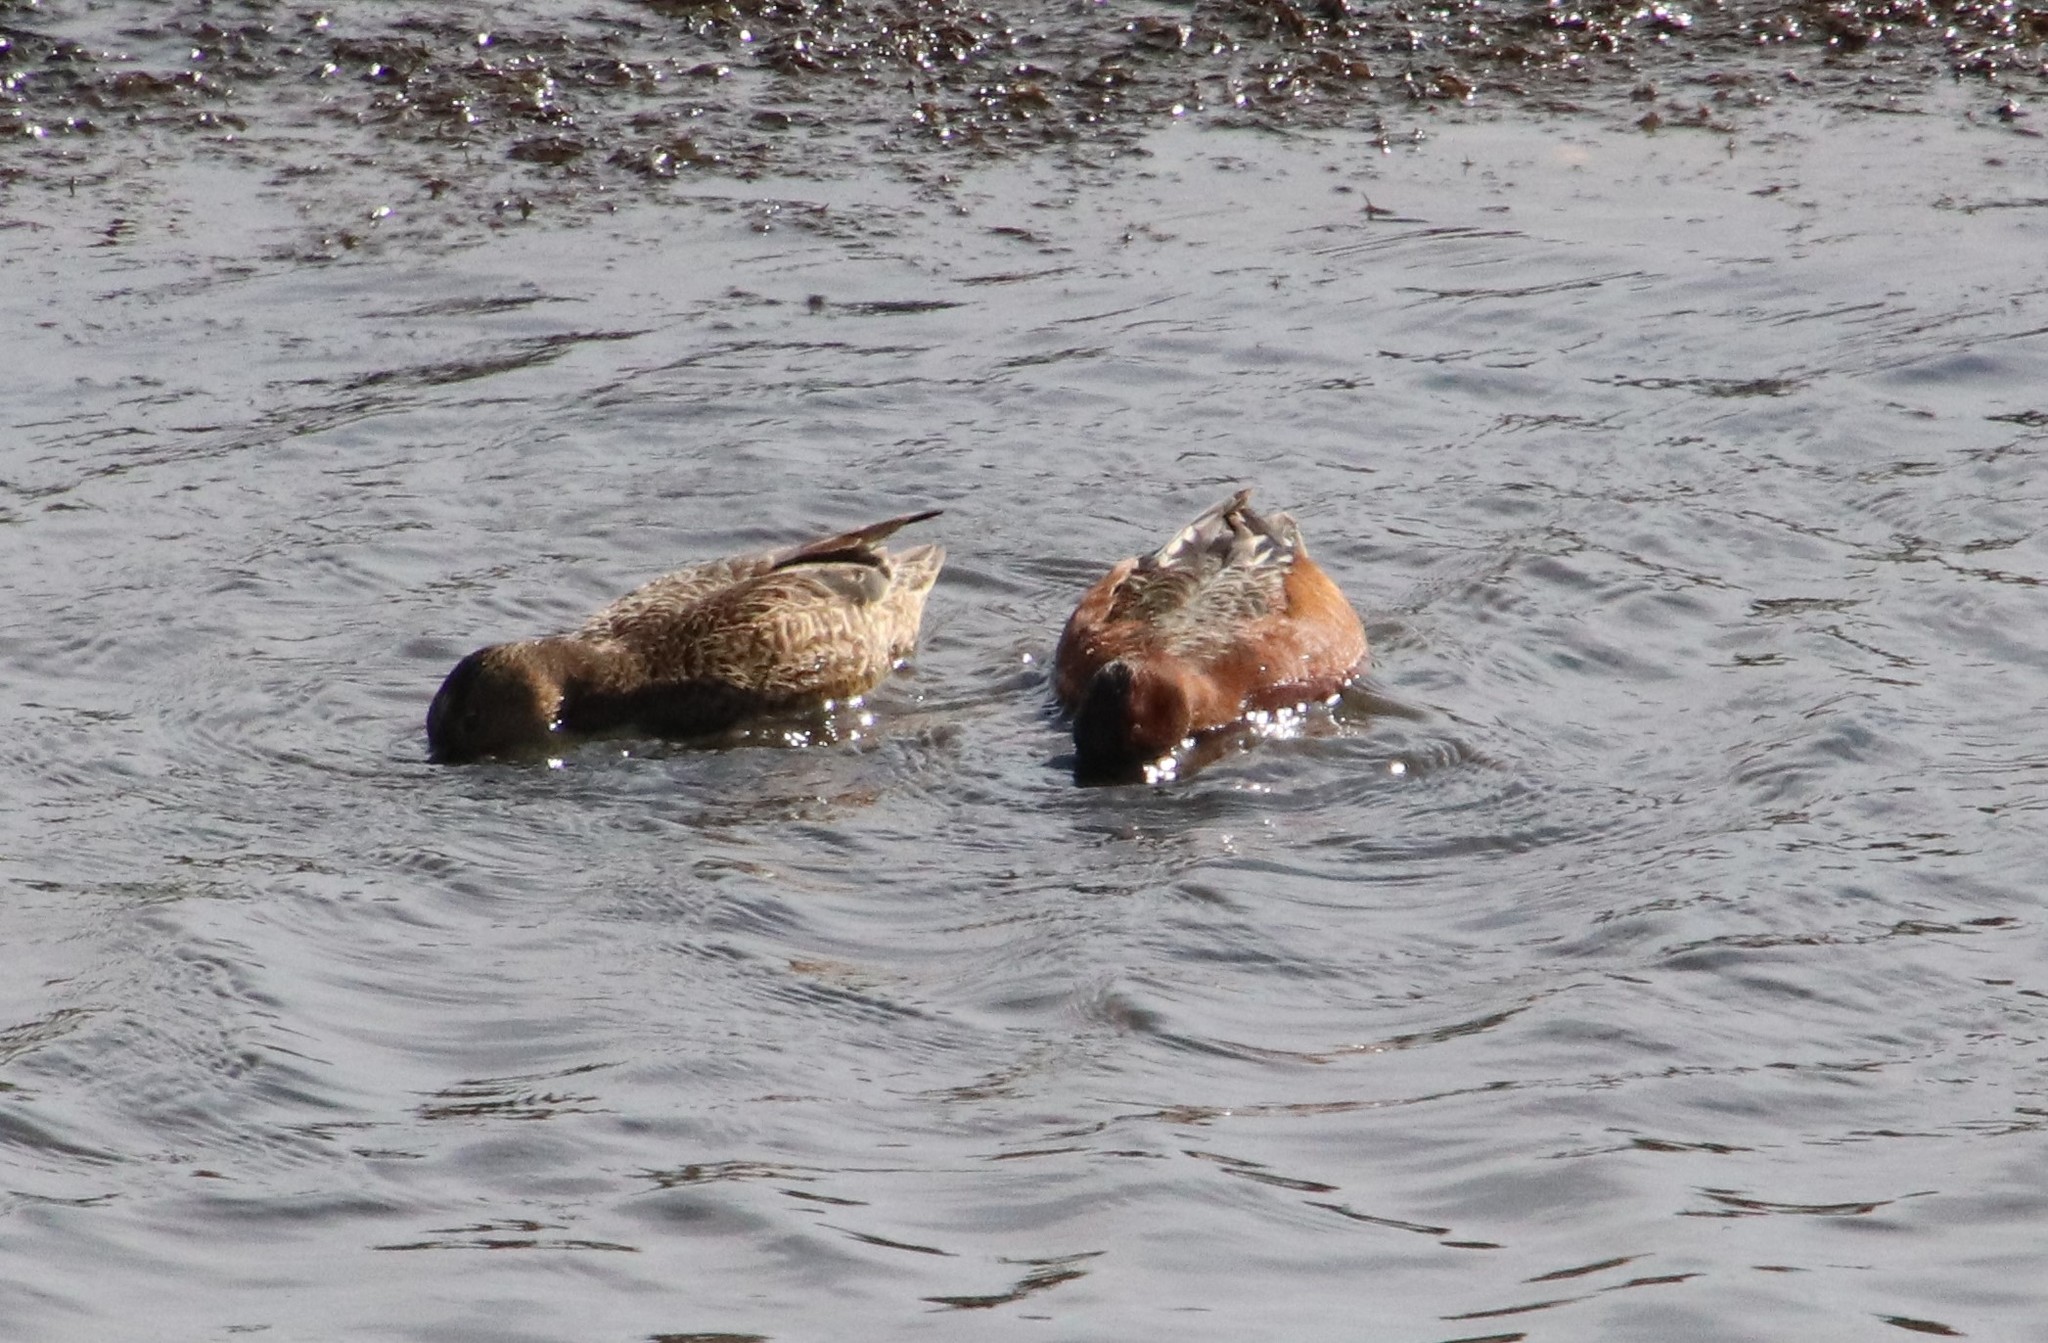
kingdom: Animalia
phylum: Chordata
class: Aves
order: Anseriformes
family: Anatidae
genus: Spatula
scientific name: Spatula cyanoptera
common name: Cinnamon teal
